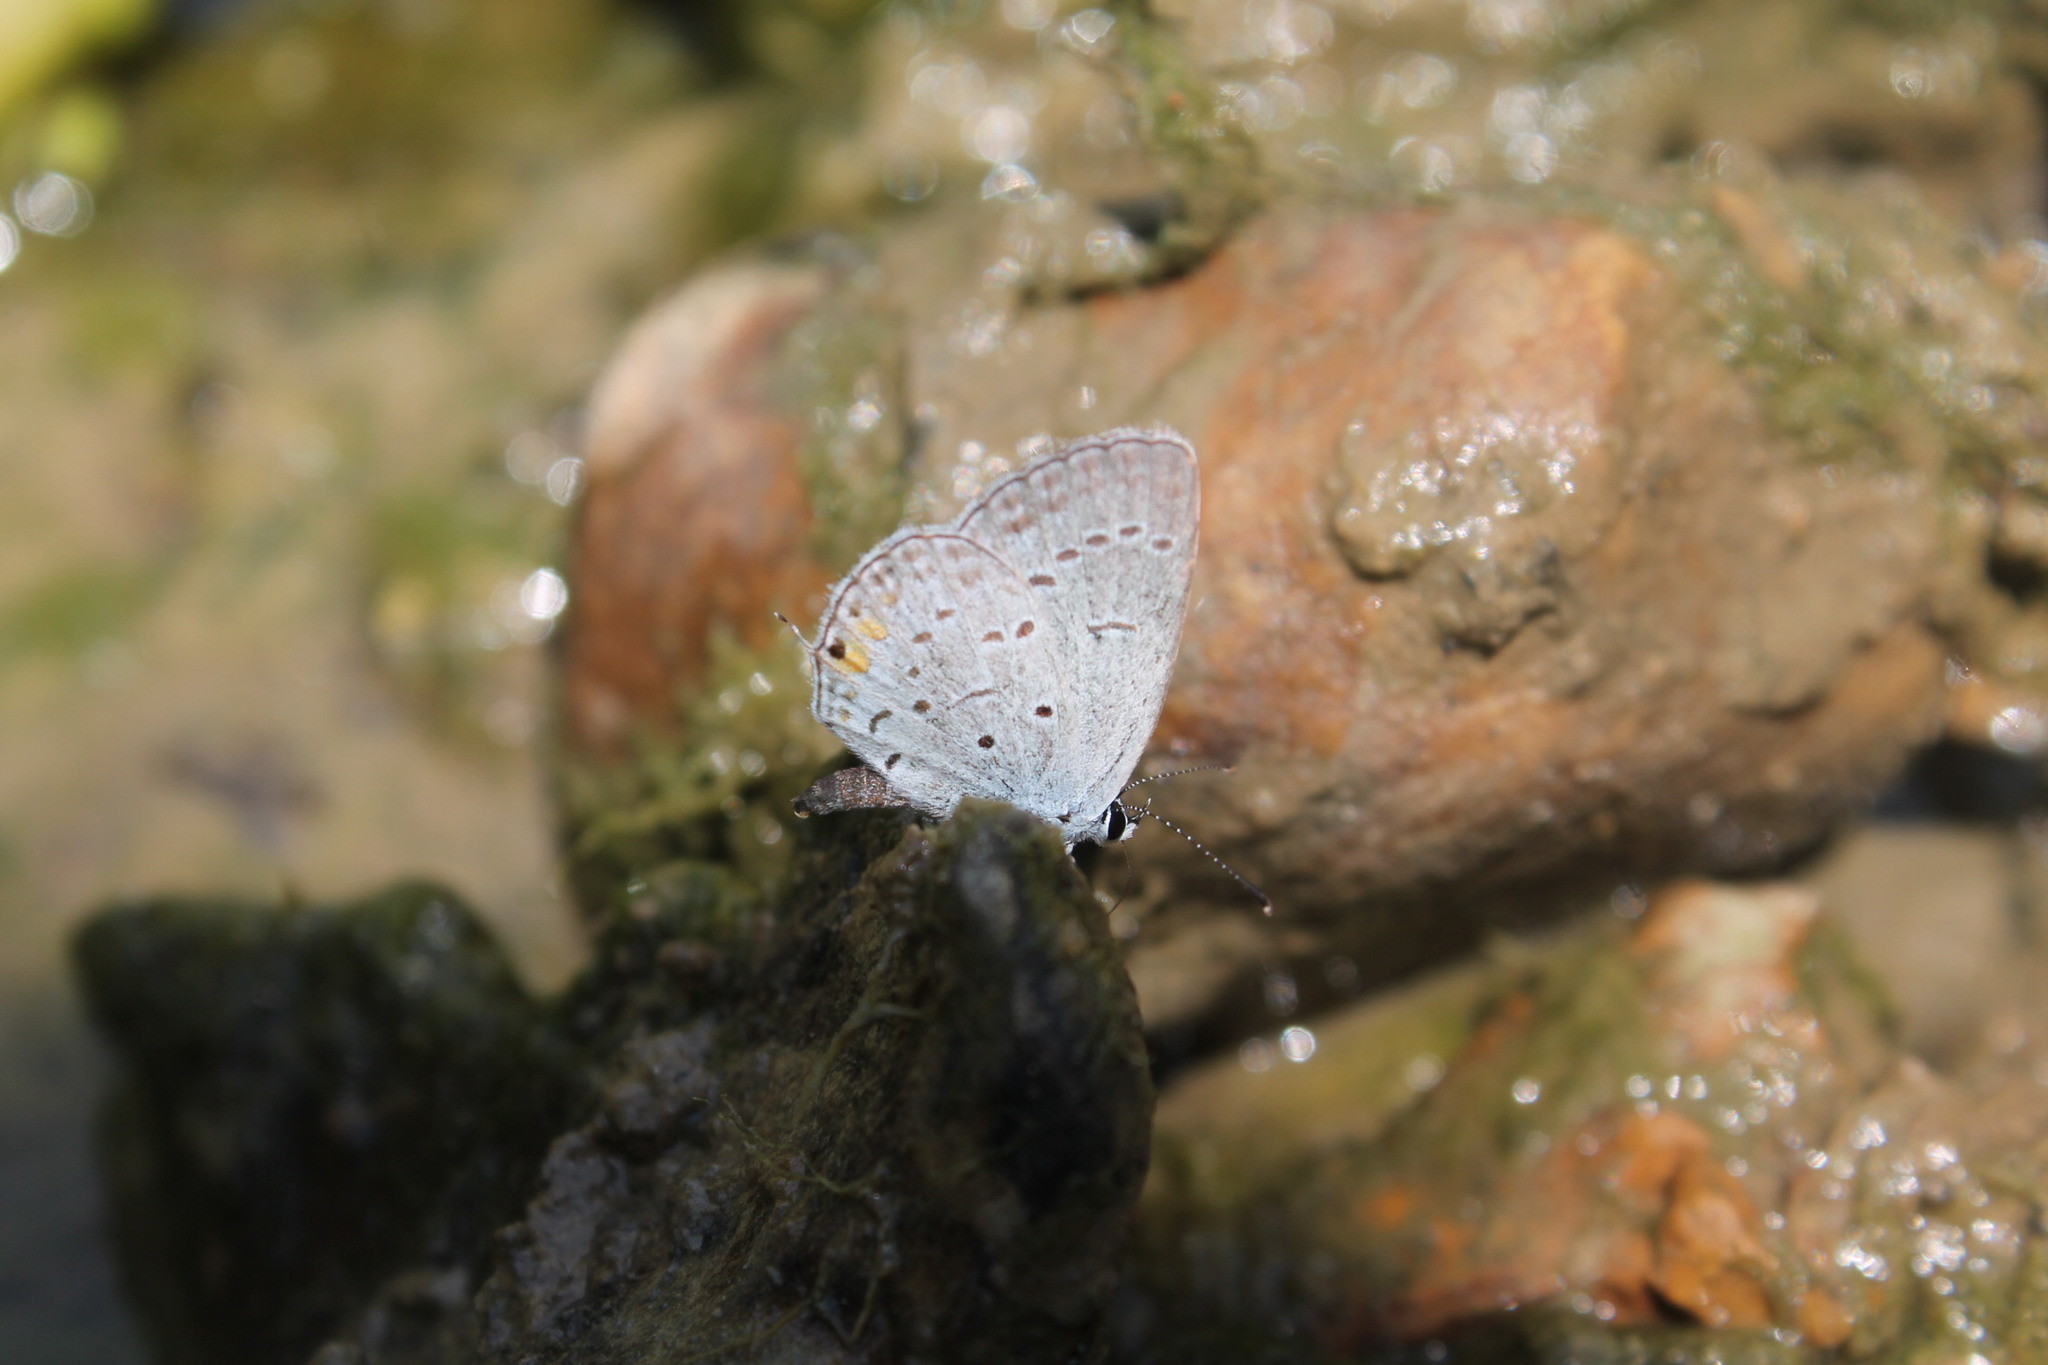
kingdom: Animalia
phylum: Arthropoda
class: Insecta
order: Lepidoptera
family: Lycaenidae
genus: Elkalyce
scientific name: Elkalyce comyntas
